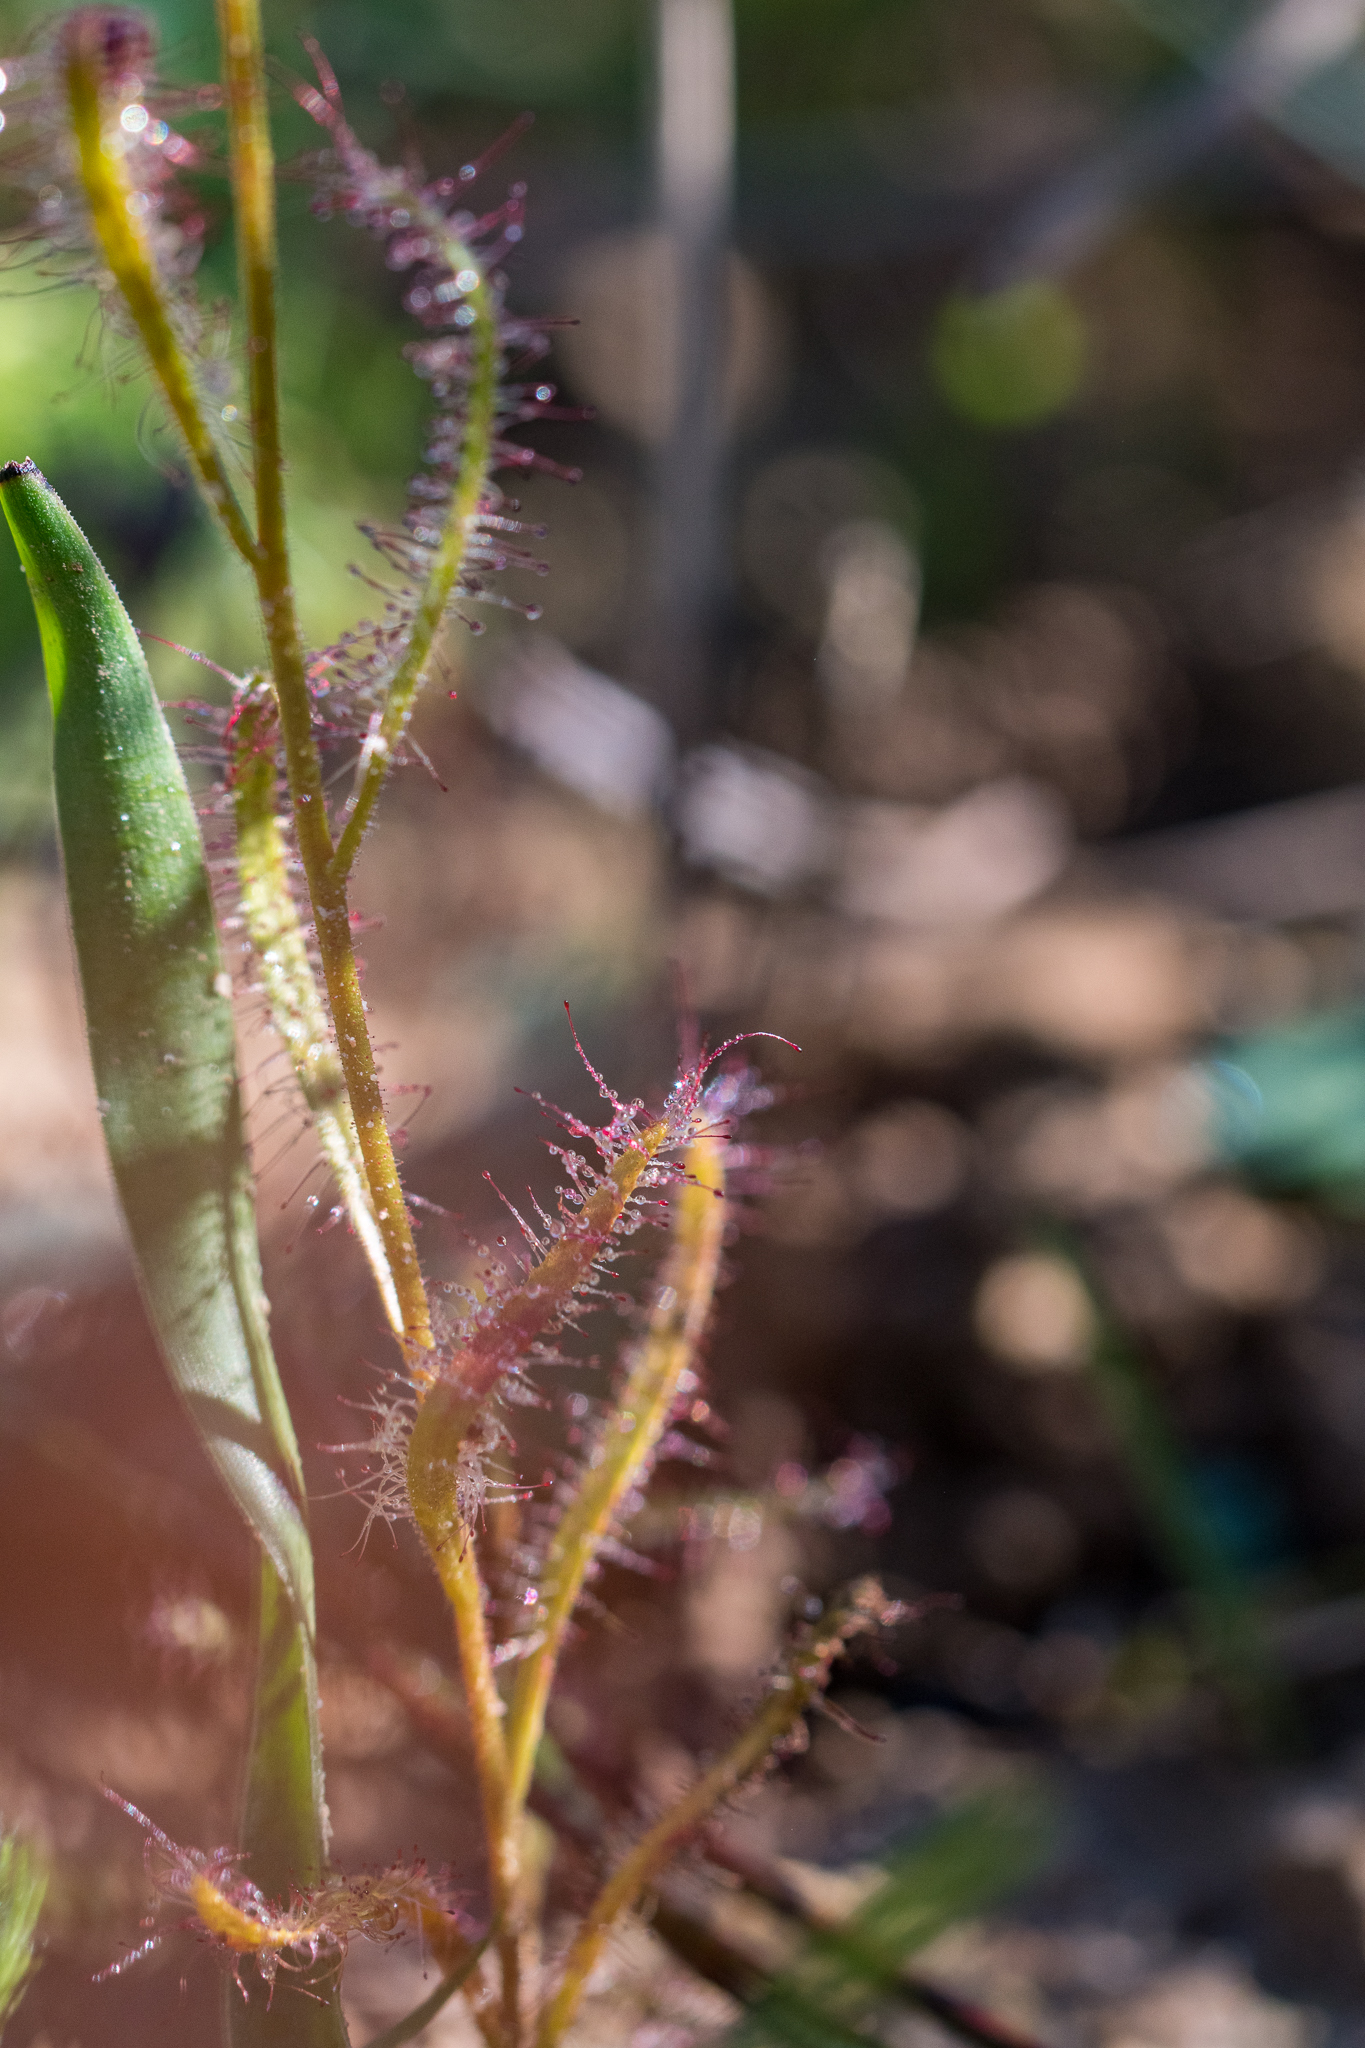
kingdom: Plantae
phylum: Tracheophyta
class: Magnoliopsida
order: Caryophyllales
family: Droseraceae
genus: Drosera
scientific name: Drosera cistiflora
